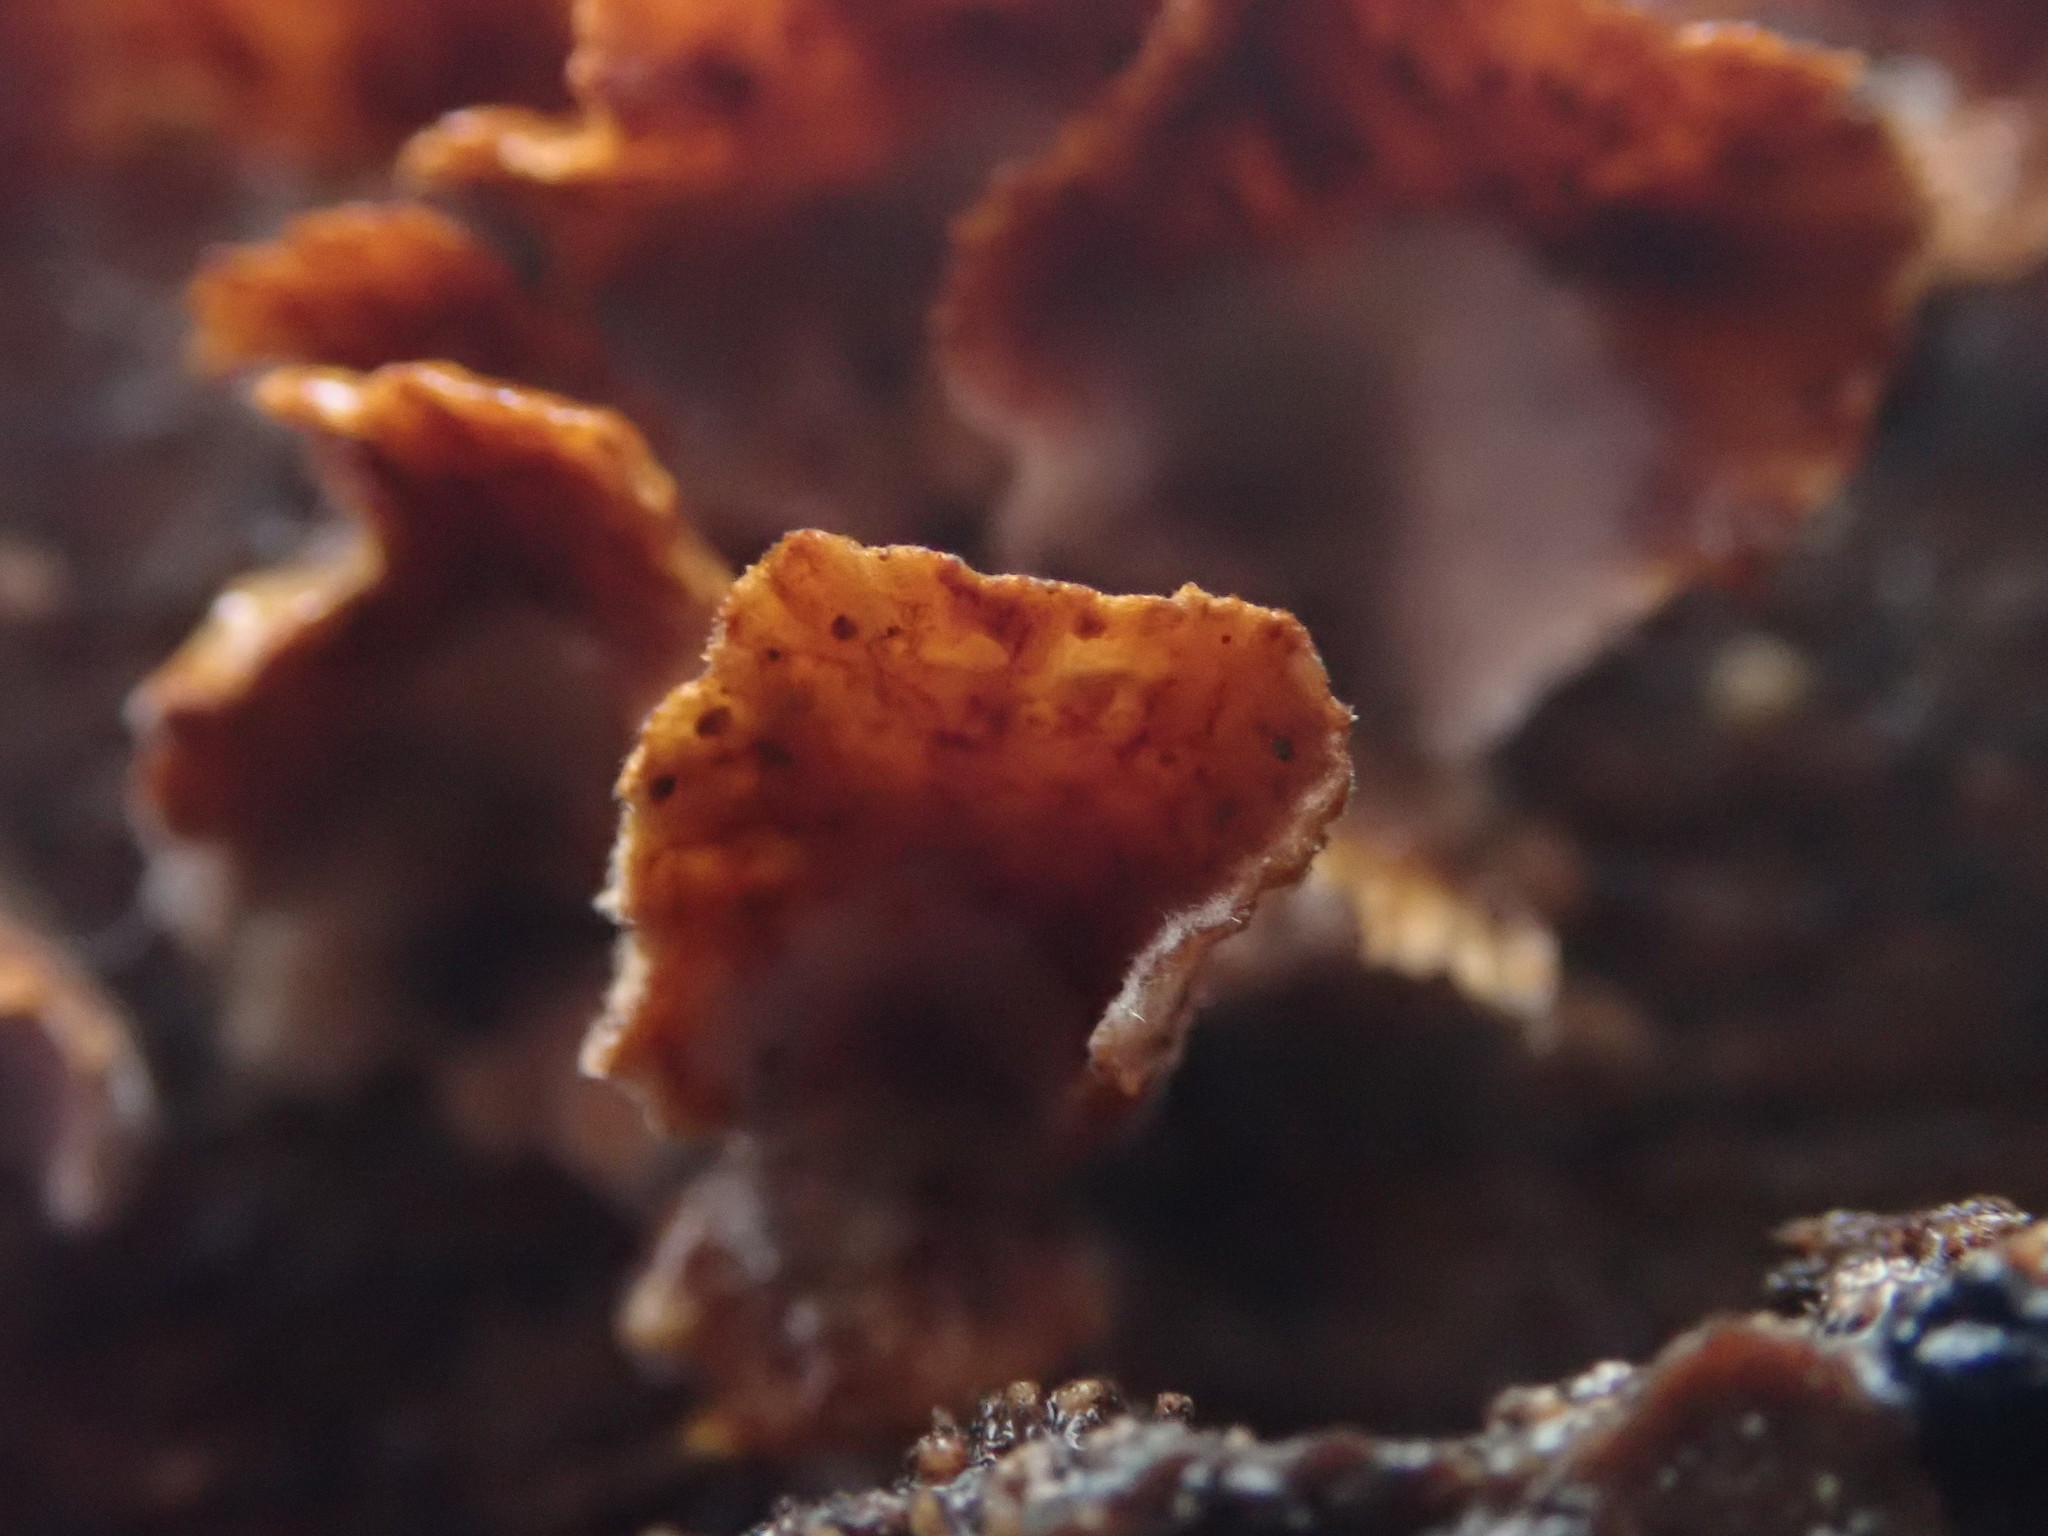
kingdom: Fungi
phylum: Basidiomycota
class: Agaricomycetes
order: Russulales
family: Stereaceae
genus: Stereum
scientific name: Stereum complicatum
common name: Crowded parchment
